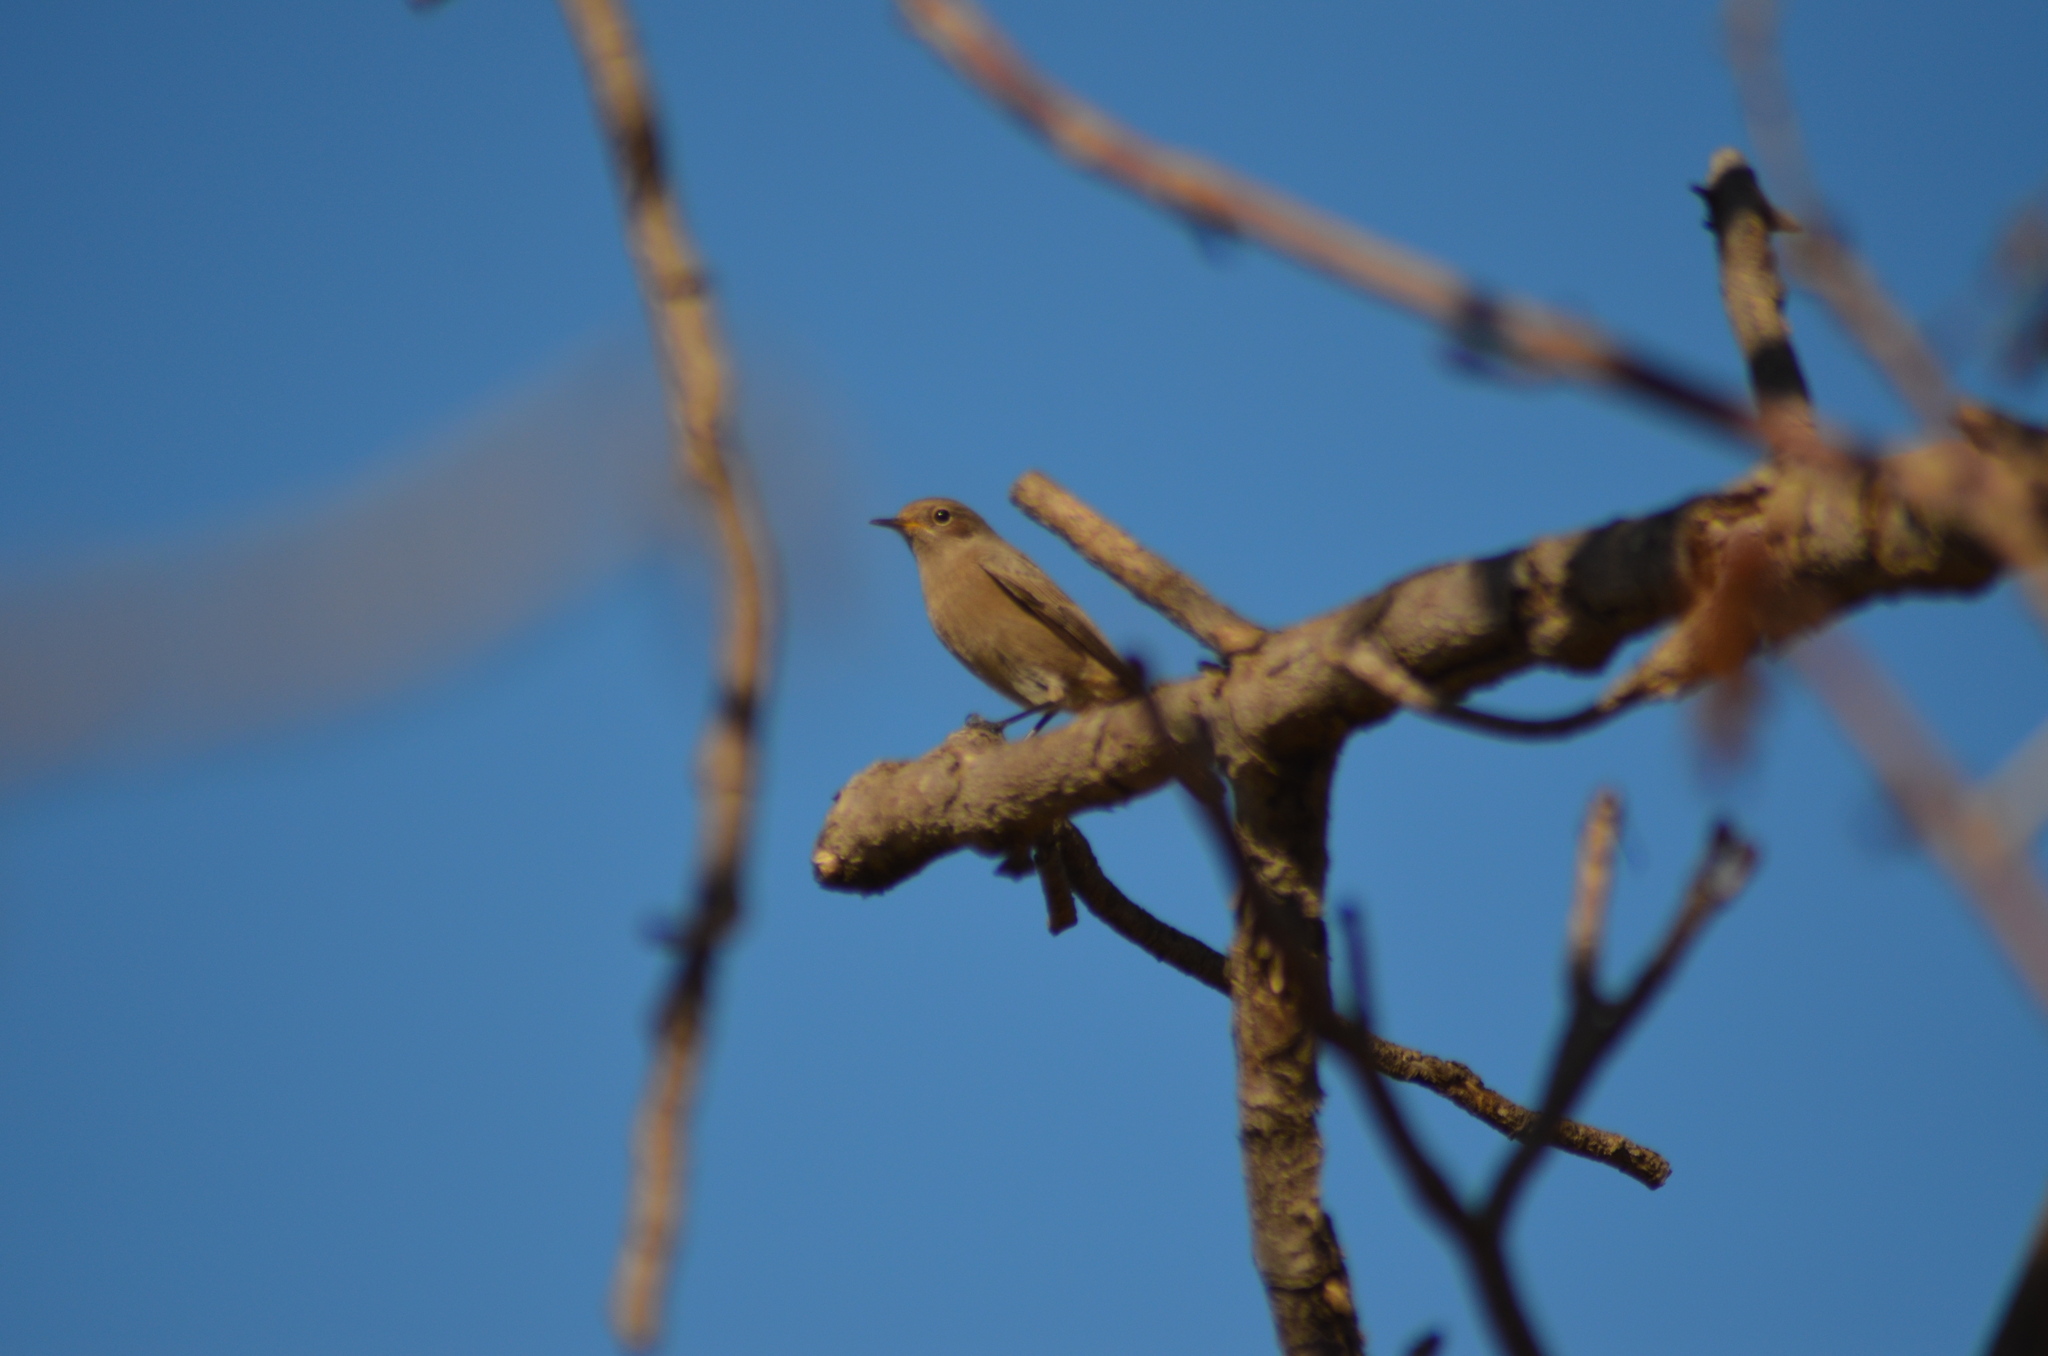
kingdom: Animalia
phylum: Chordata
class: Aves
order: Passeriformes
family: Muscicapidae
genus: Phoenicurus
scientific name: Phoenicurus ochruros
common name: Black redstart
